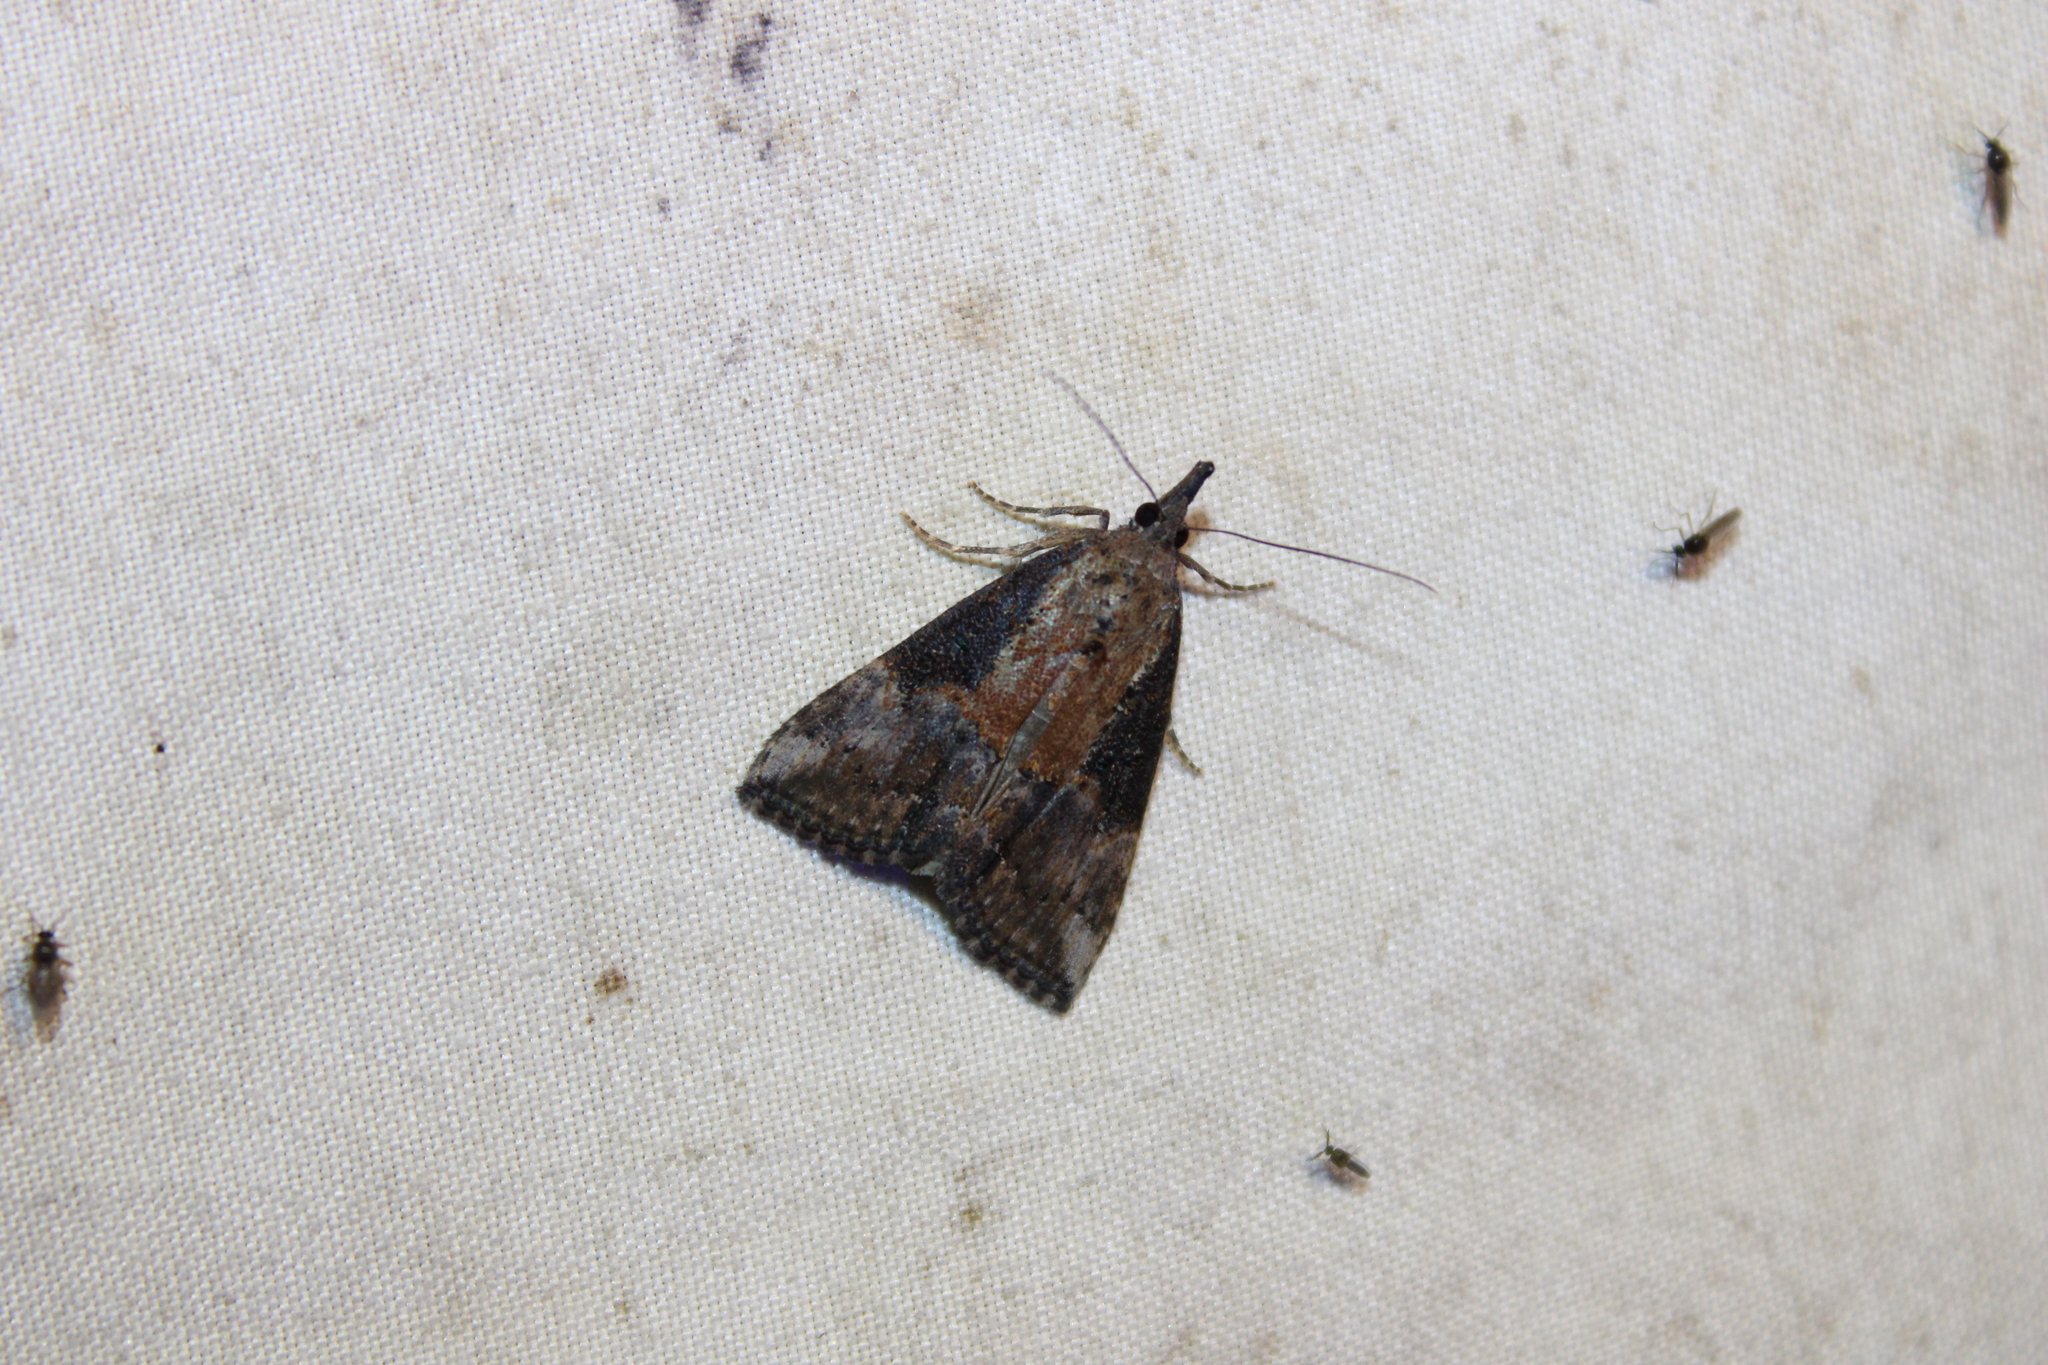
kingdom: Animalia
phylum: Arthropoda
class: Insecta
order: Lepidoptera
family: Erebidae
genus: Hypena
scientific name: Hypena scabra
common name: Green cloverworm
